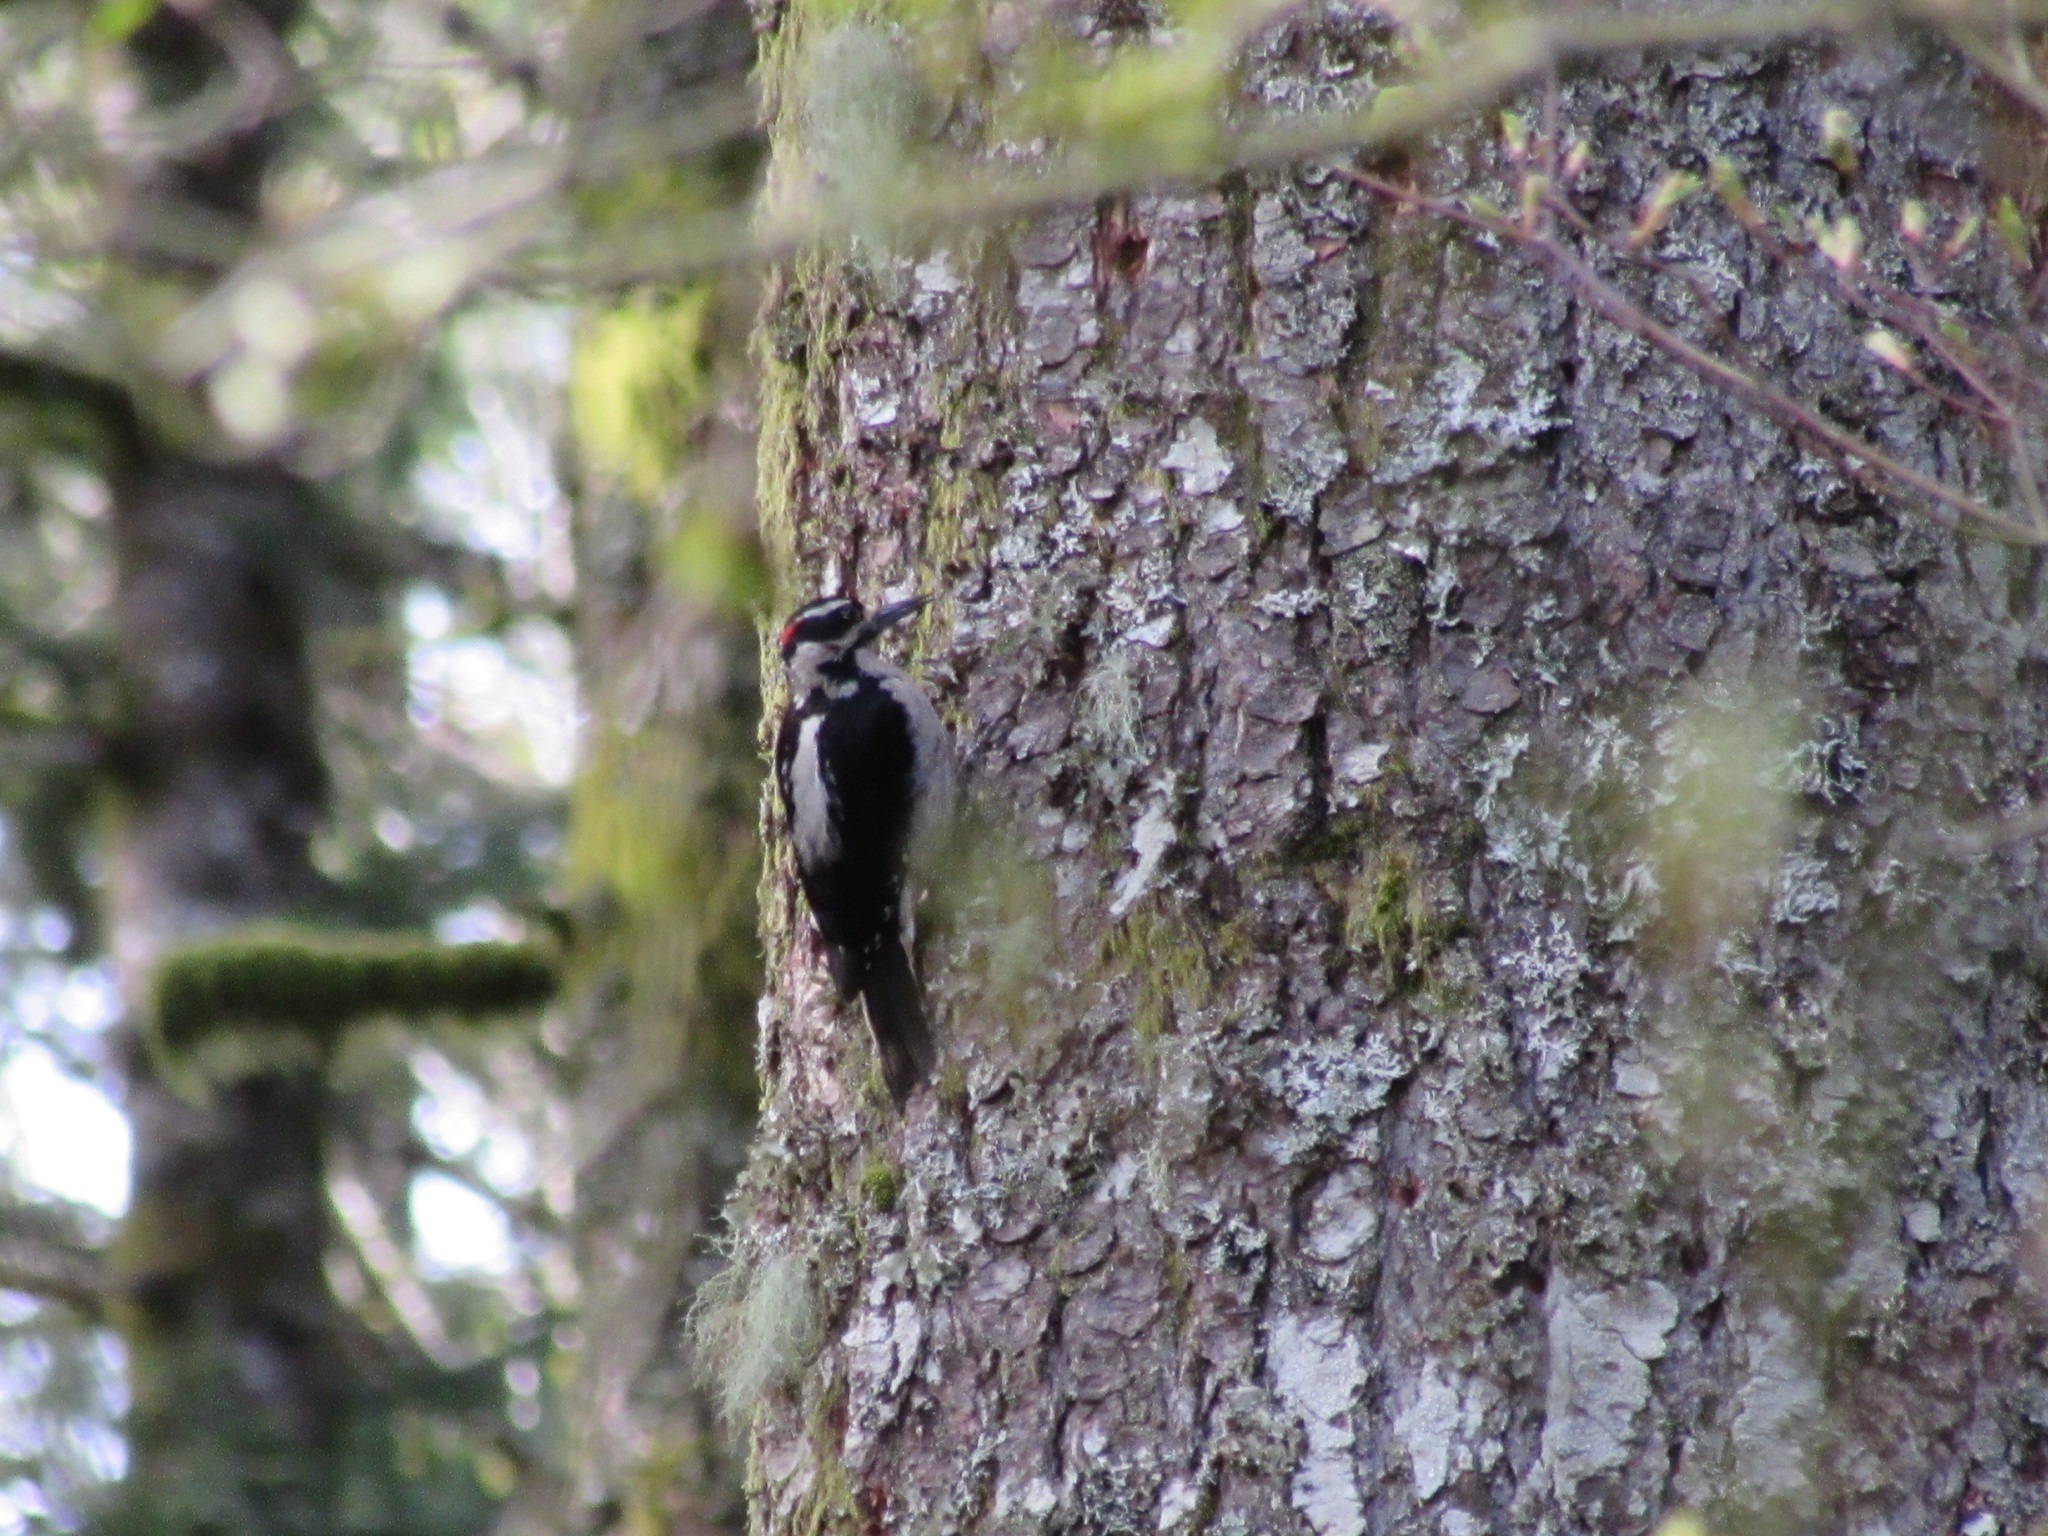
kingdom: Animalia
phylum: Chordata
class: Aves
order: Piciformes
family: Picidae
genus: Leuconotopicus
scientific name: Leuconotopicus villosus
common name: Hairy woodpecker
